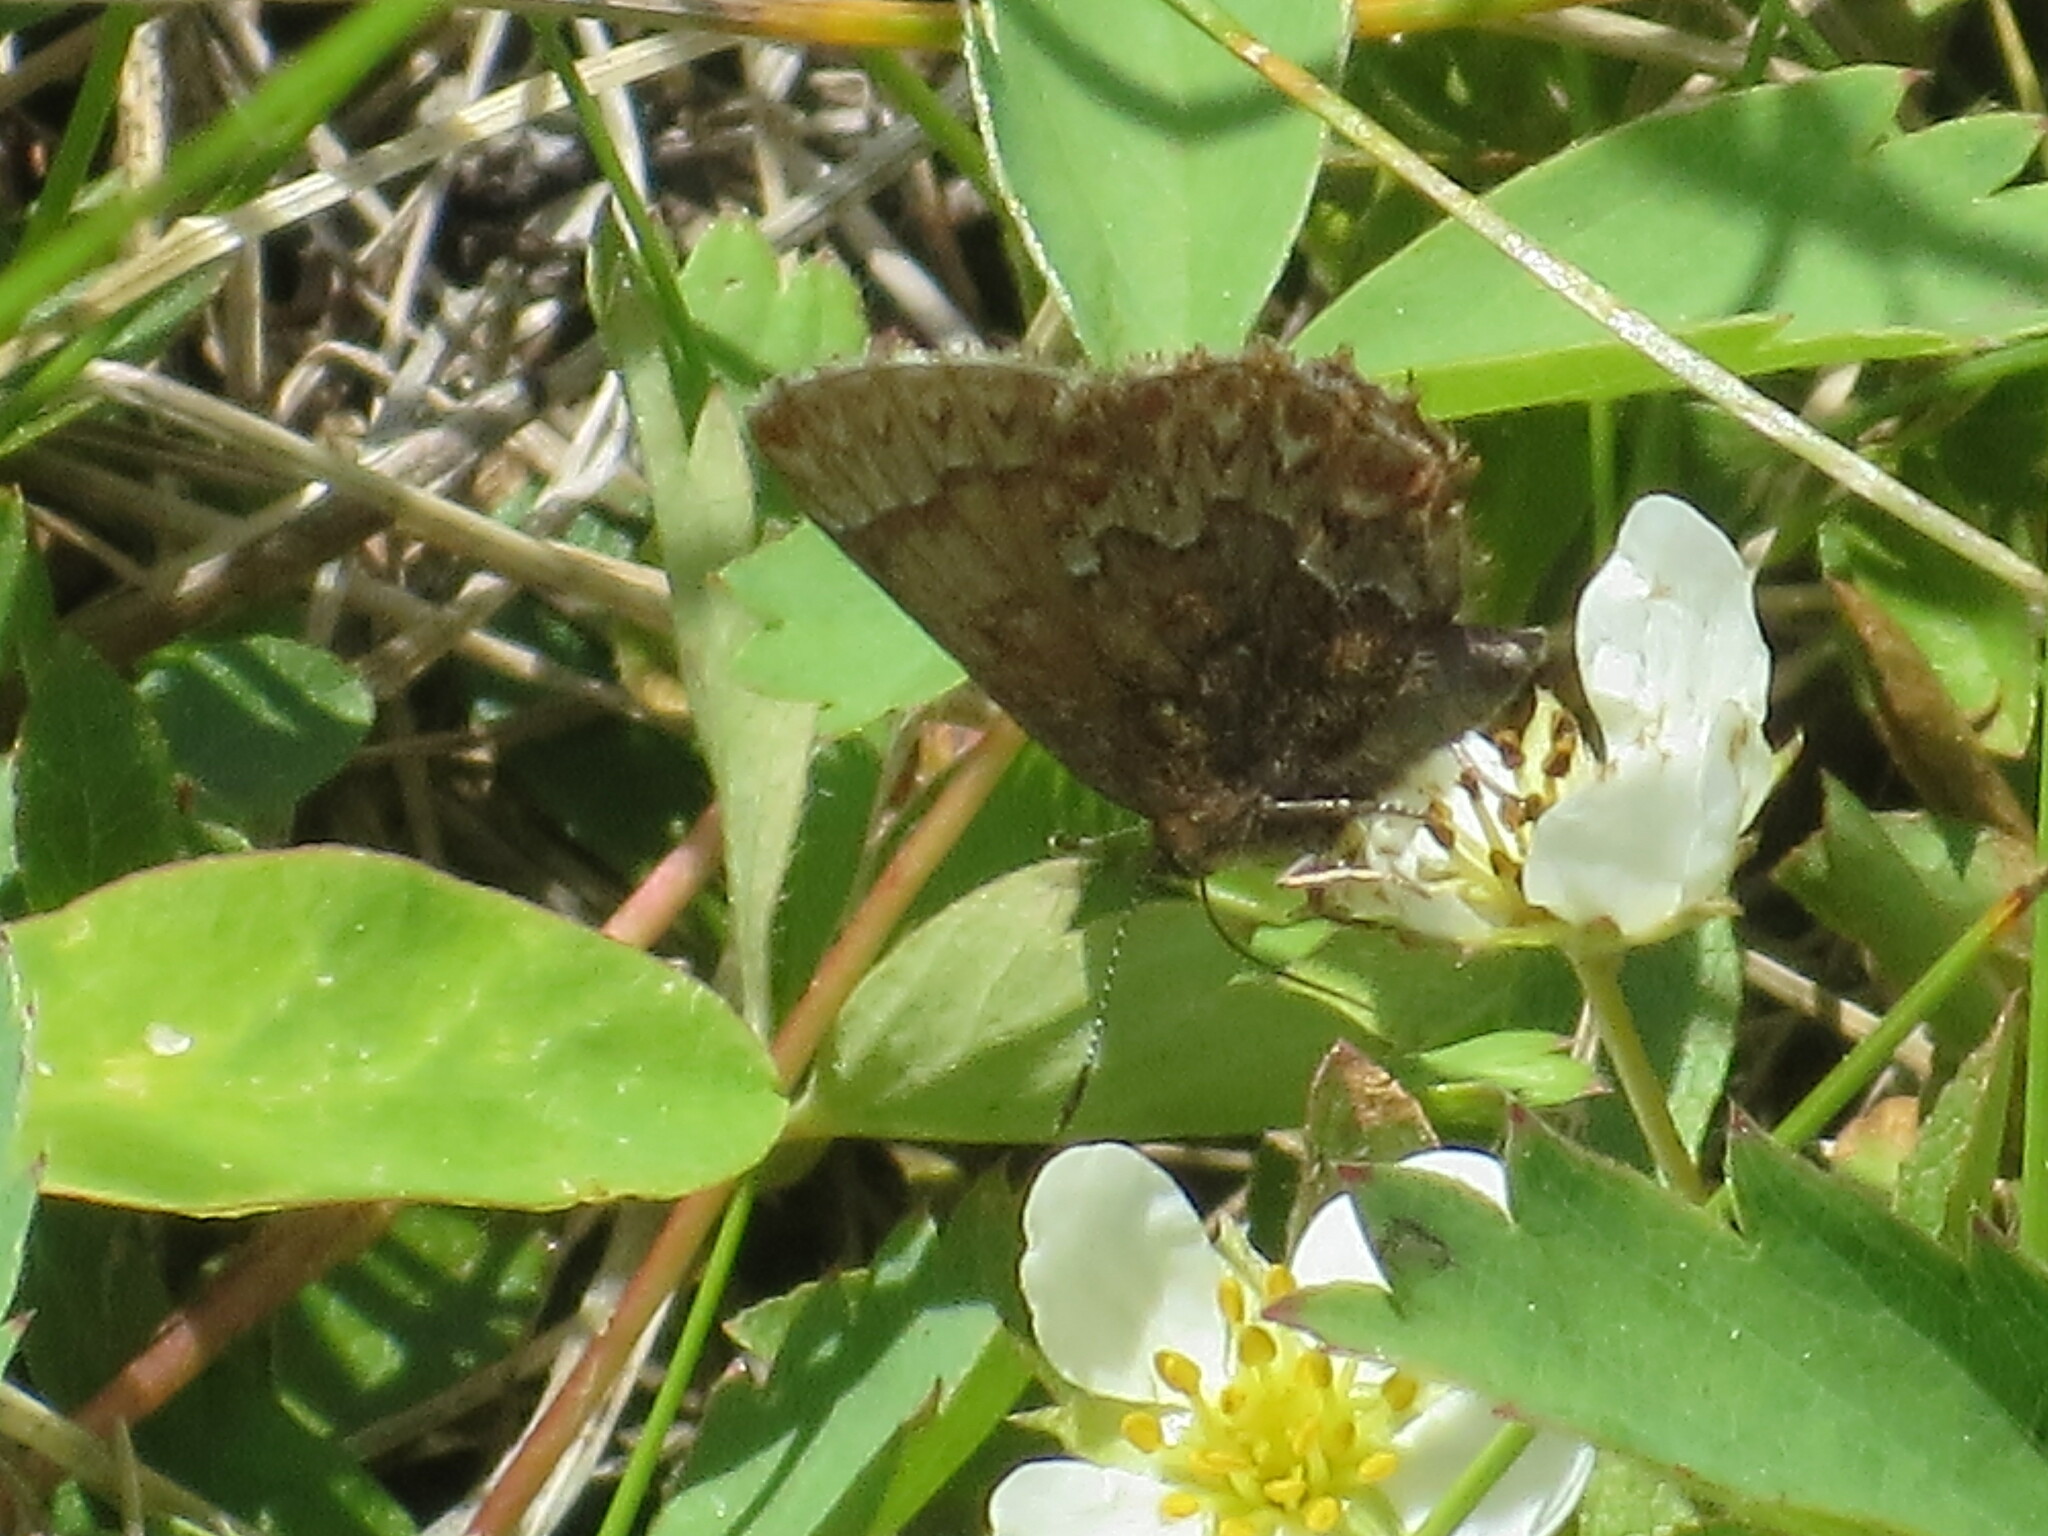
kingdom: Animalia
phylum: Arthropoda
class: Insecta
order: Lepidoptera
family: Lycaenidae
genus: Incisalia
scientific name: Incisalia eryphon
